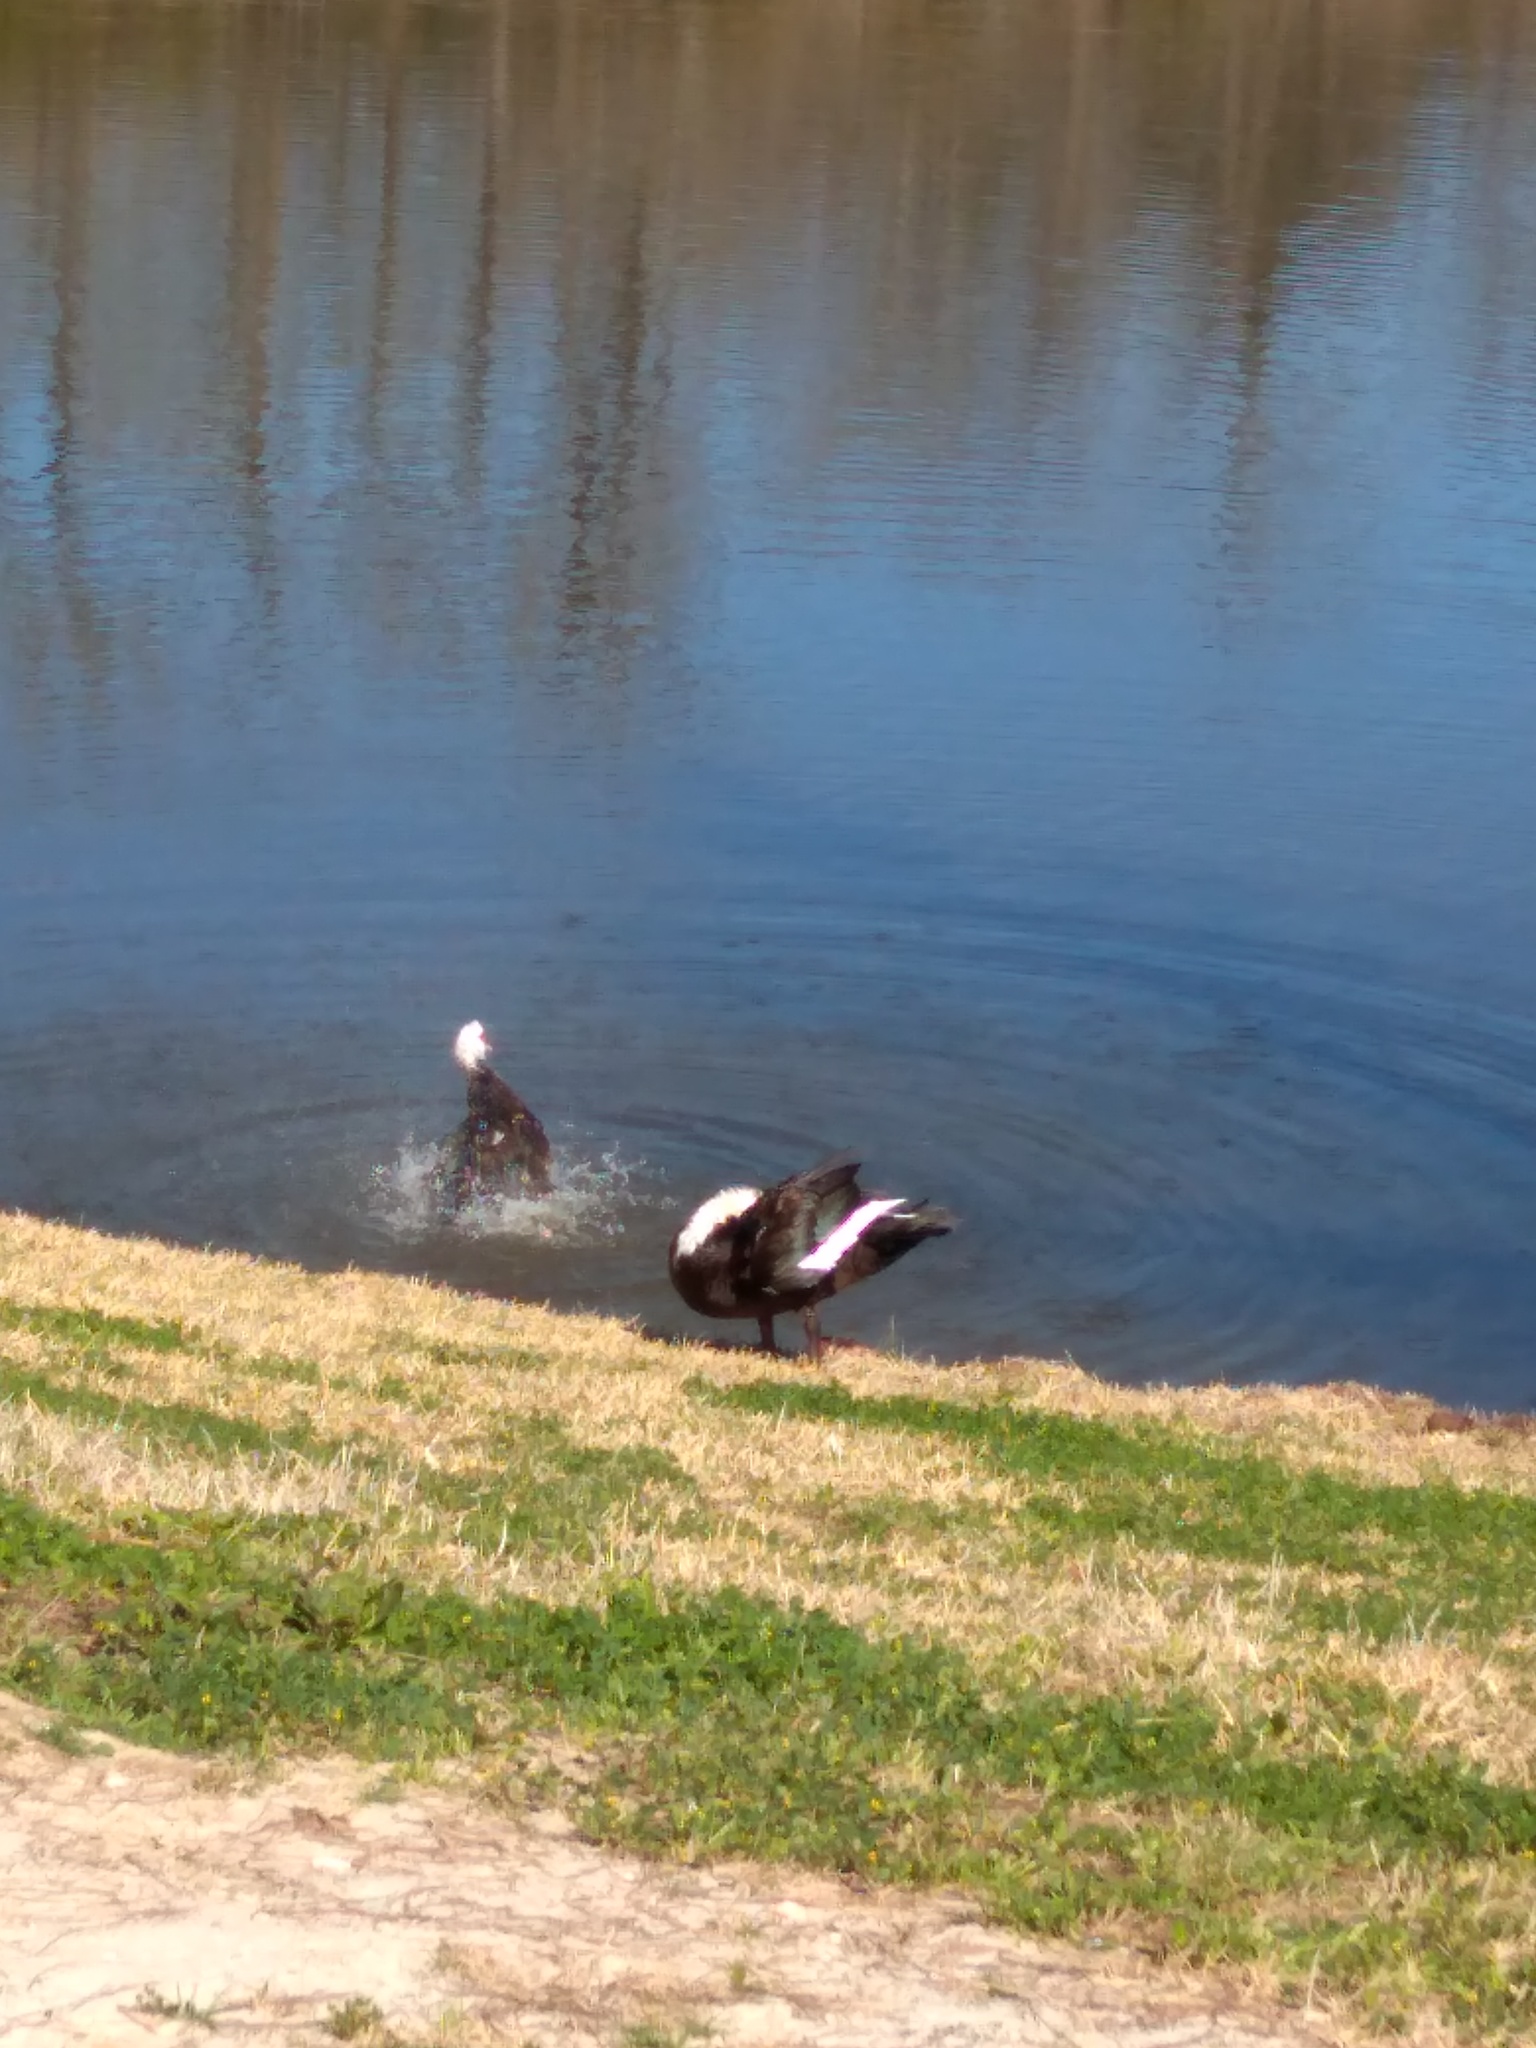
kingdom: Animalia
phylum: Chordata
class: Aves
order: Anseriformes
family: Anatidae
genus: Cairina
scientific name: Cairina moschata
